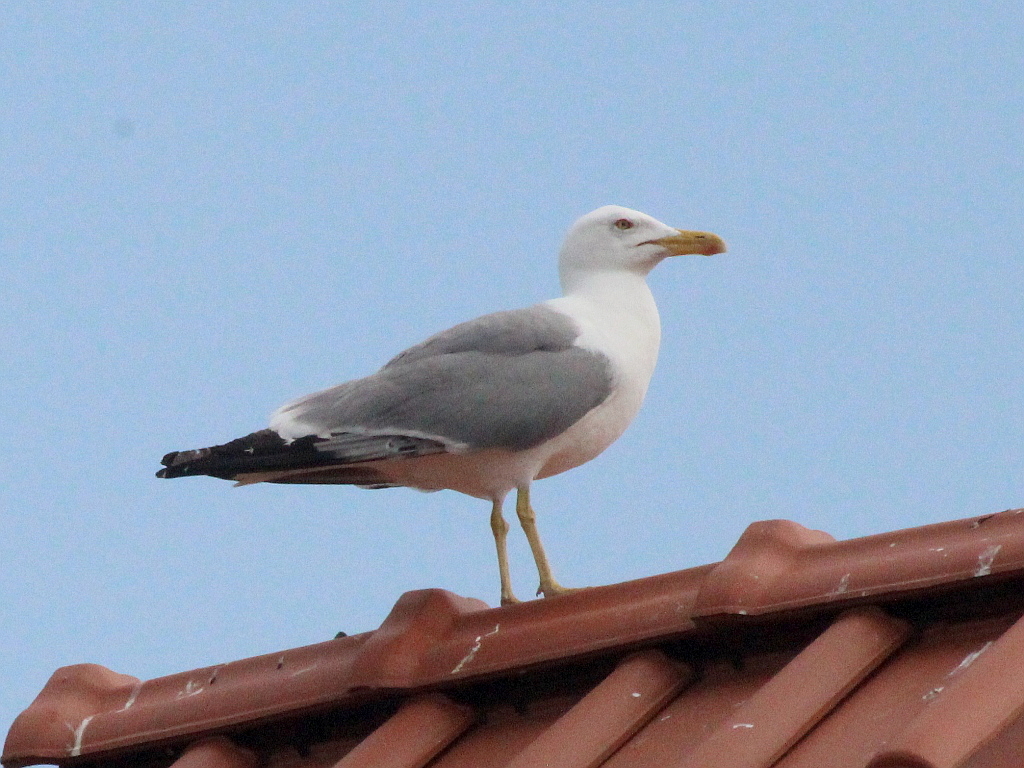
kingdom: Animalia
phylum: Chordata
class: Aves
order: Charadriiformes
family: Laridae
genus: Larus
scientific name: Larus michahellis
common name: Yellow-legged gull
